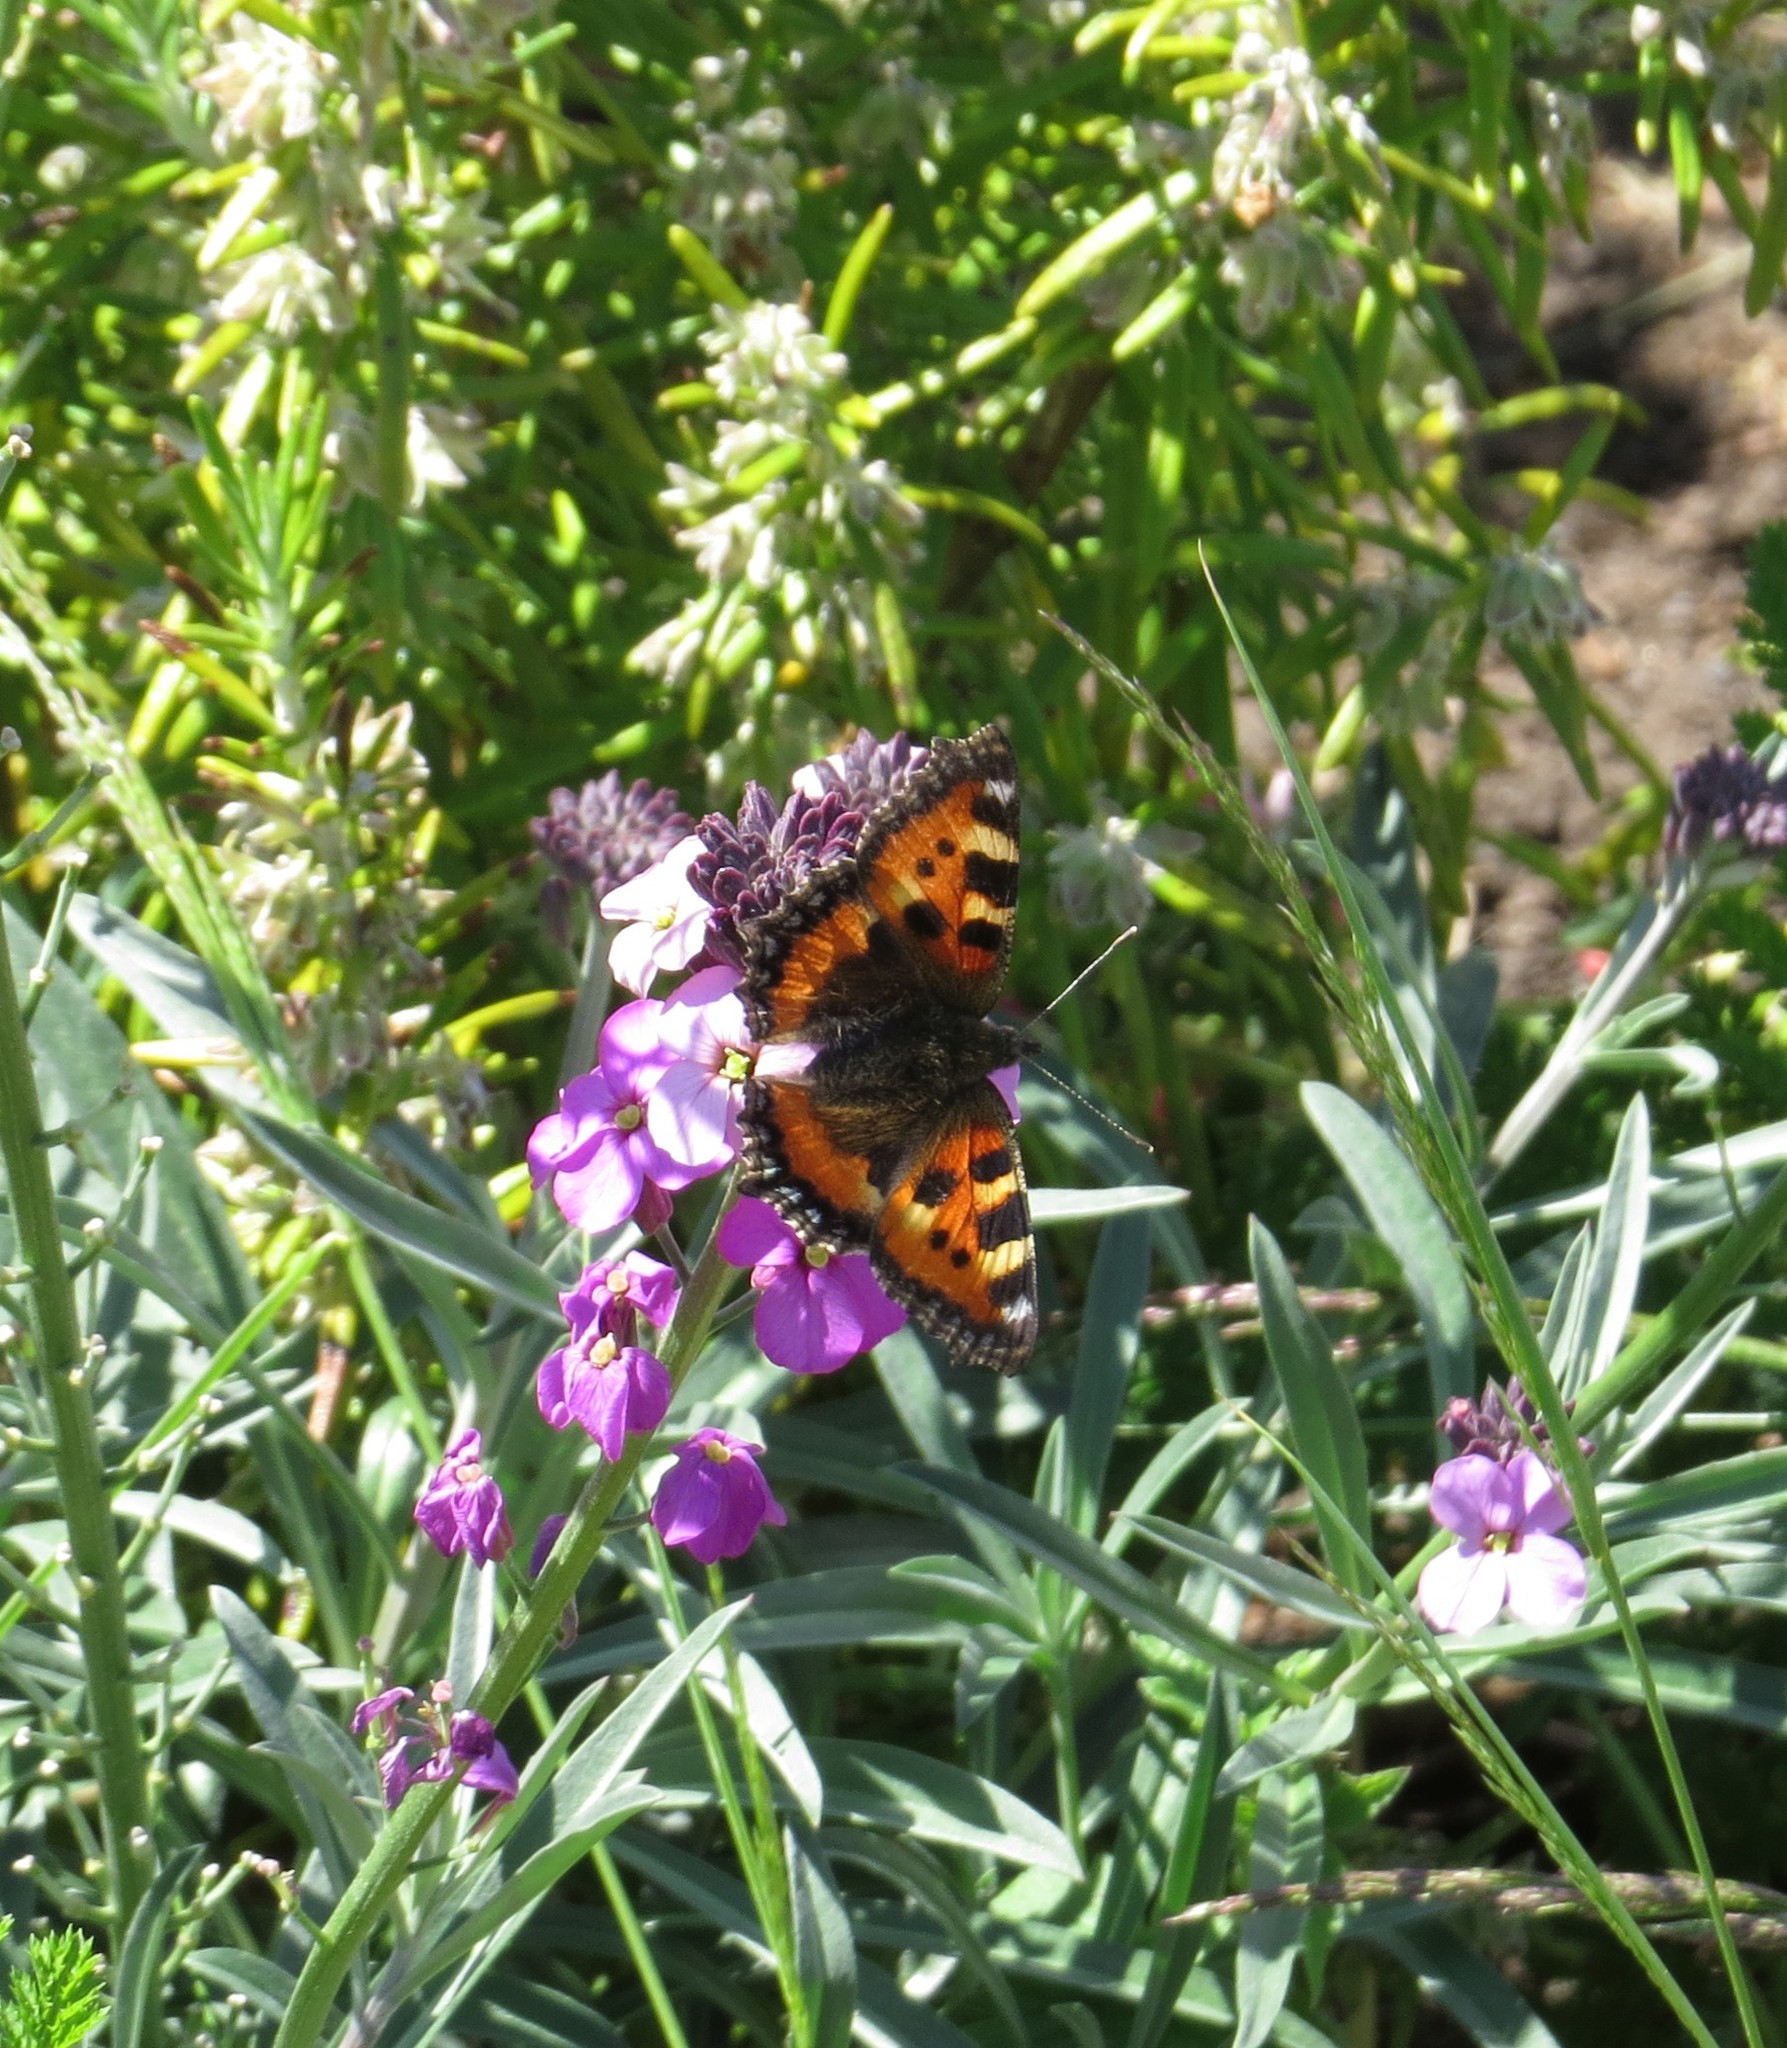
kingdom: Animalia
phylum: Arthropoda
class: Insecta
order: Lepidoptera
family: Nymphalidae
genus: Aglais
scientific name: Aglais urticae
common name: Small tortoiseshell
